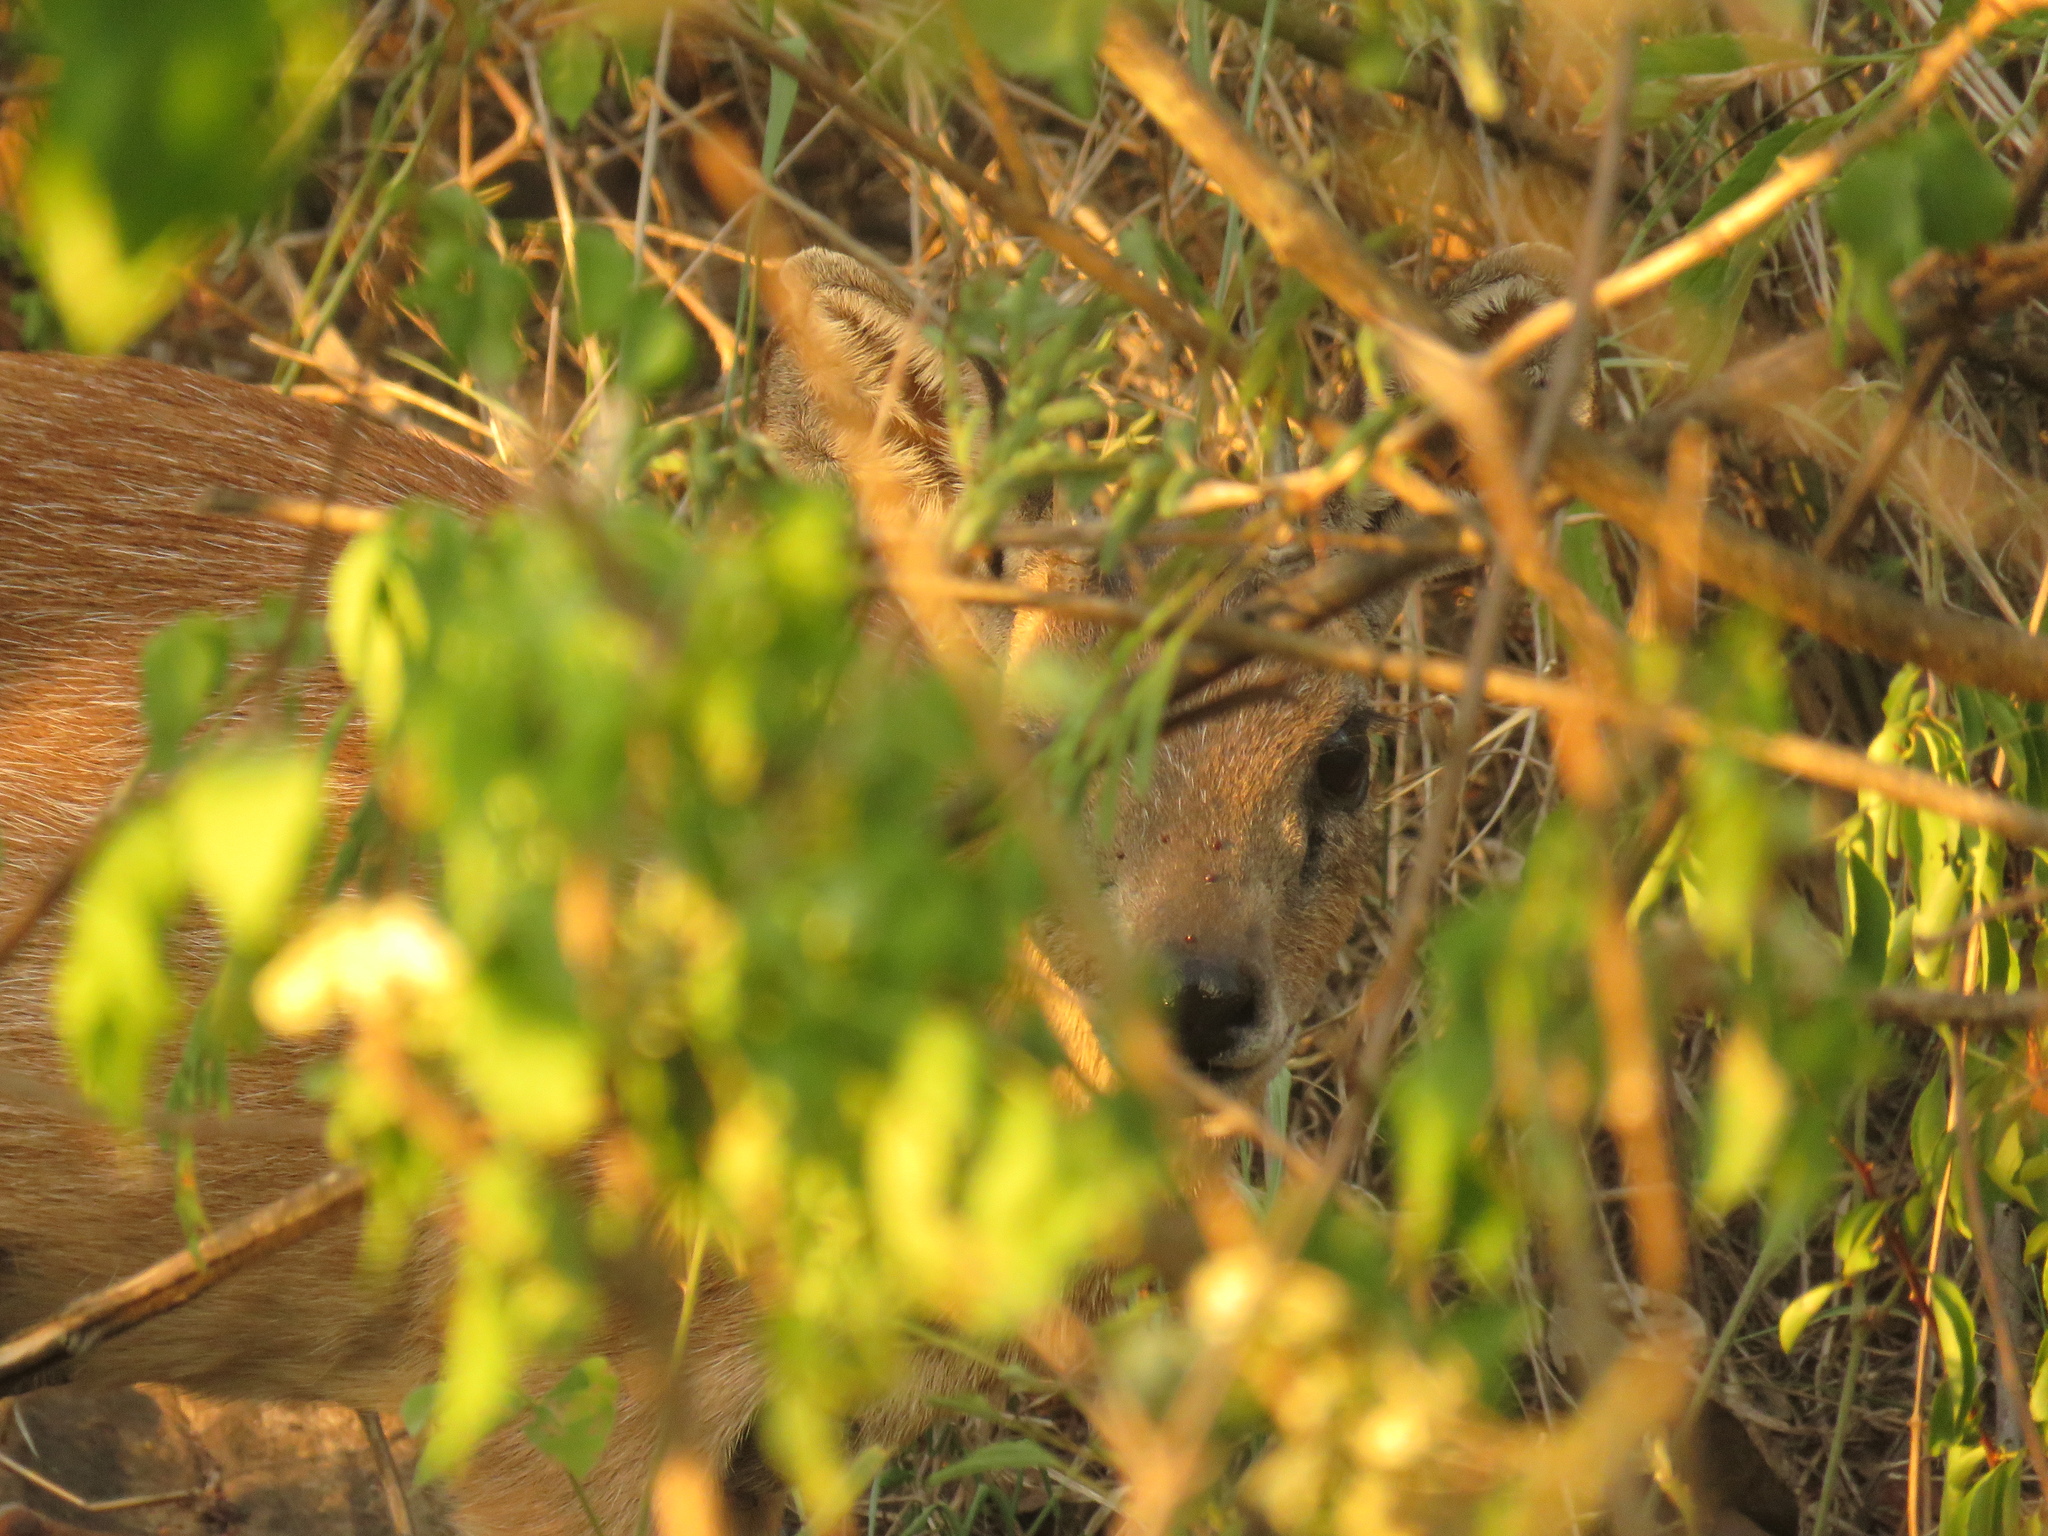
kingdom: Animalia
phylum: Chordata
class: Mammalia
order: Artiodactyla
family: Bovidae
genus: Raphicerus
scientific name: Raphicerus sharpei
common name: Sharpe's grysbok
